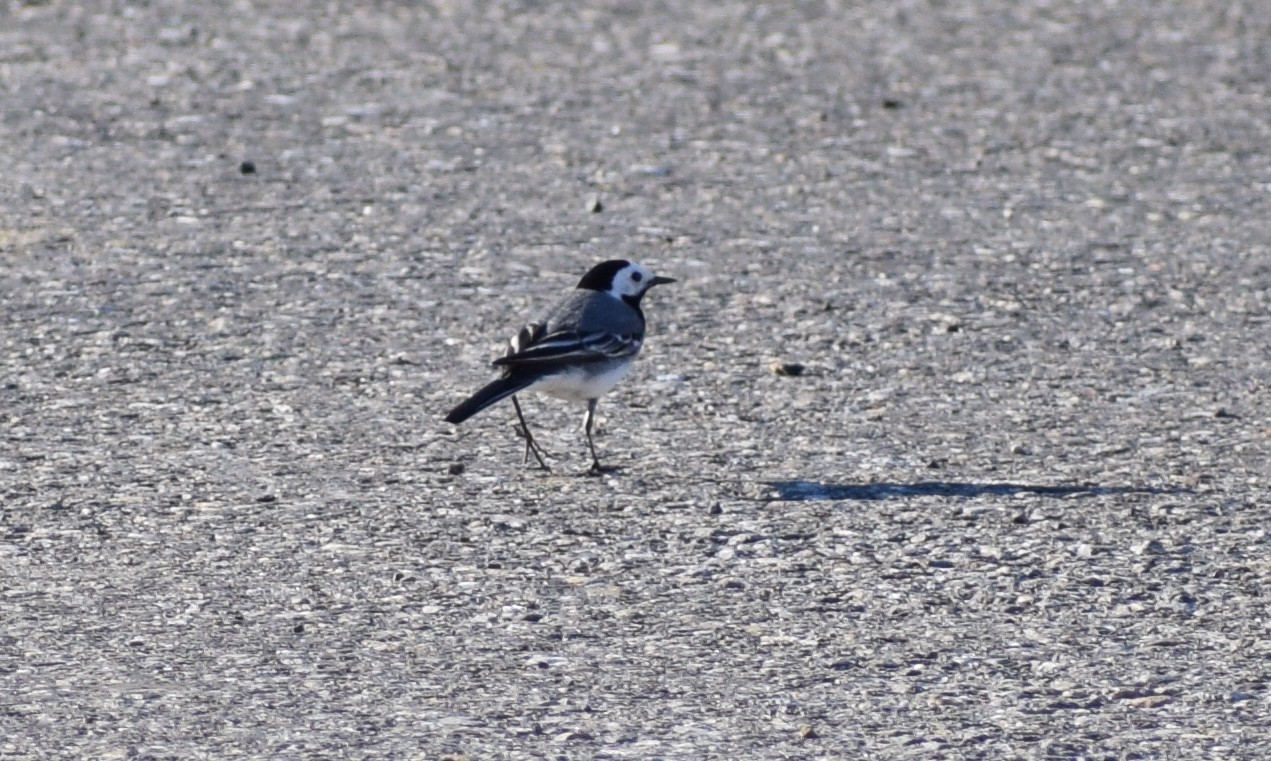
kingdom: Animalia
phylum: Chordata
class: Aves
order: Passeriformes
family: Motacillidae
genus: Motacilla
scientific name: Motacilla alba
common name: White wagtail
